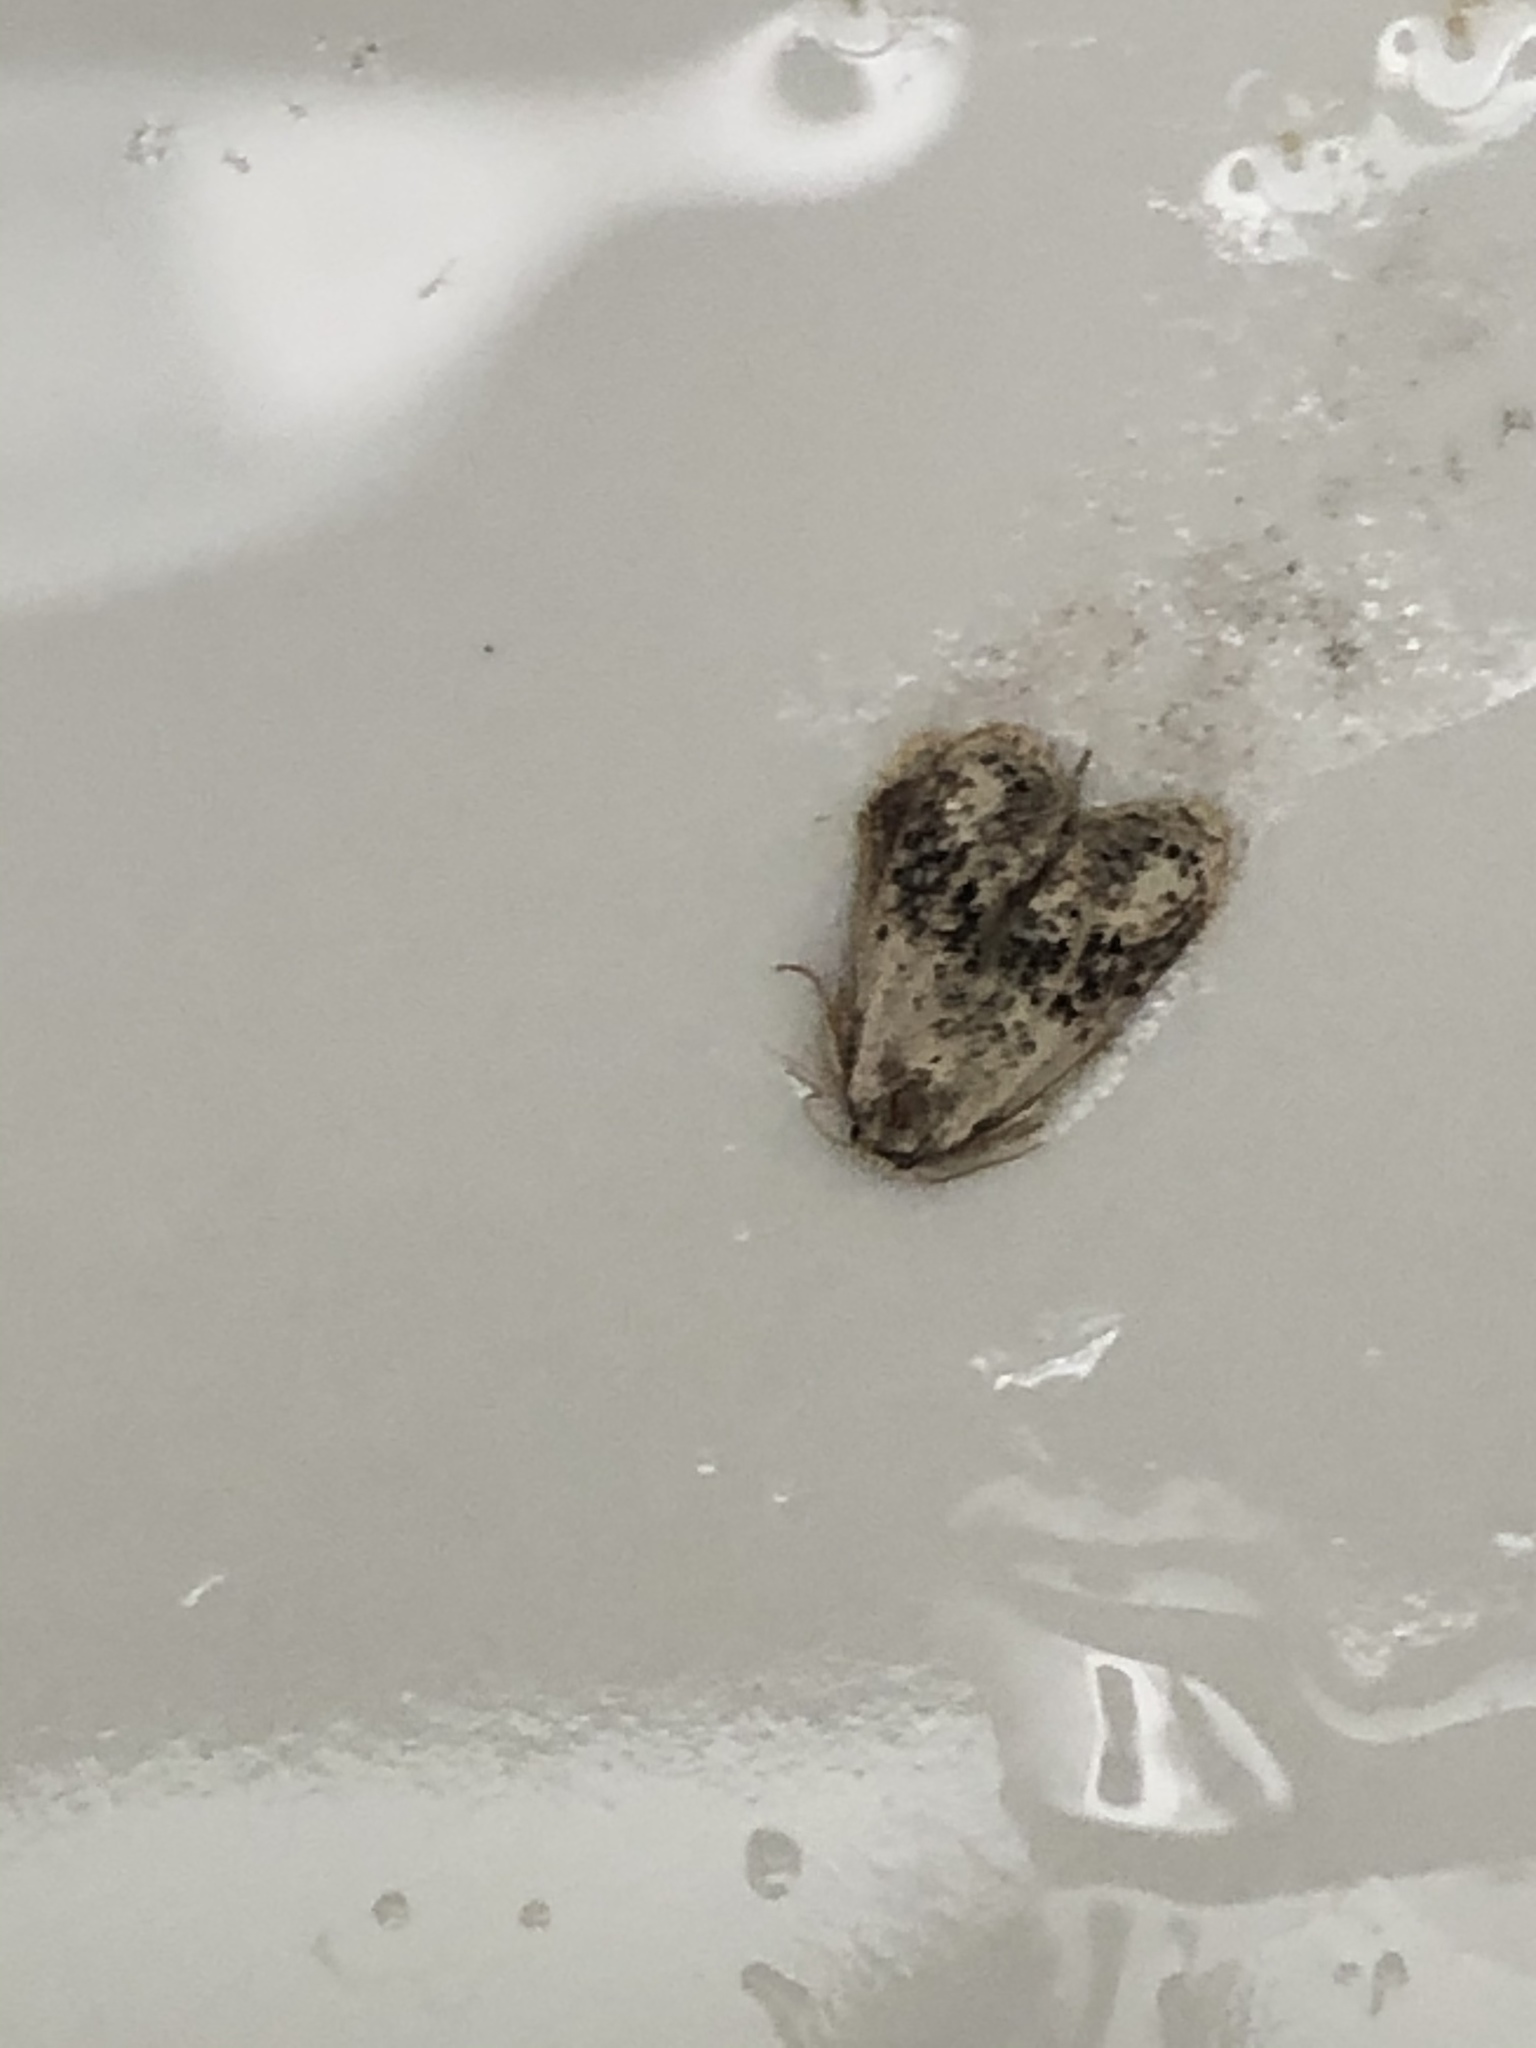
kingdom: Animalia
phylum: Arthropoda
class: Insecta
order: Lepidoptera
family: Tineidae
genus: Acrolophus
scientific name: Acrolophus mycetophagus
